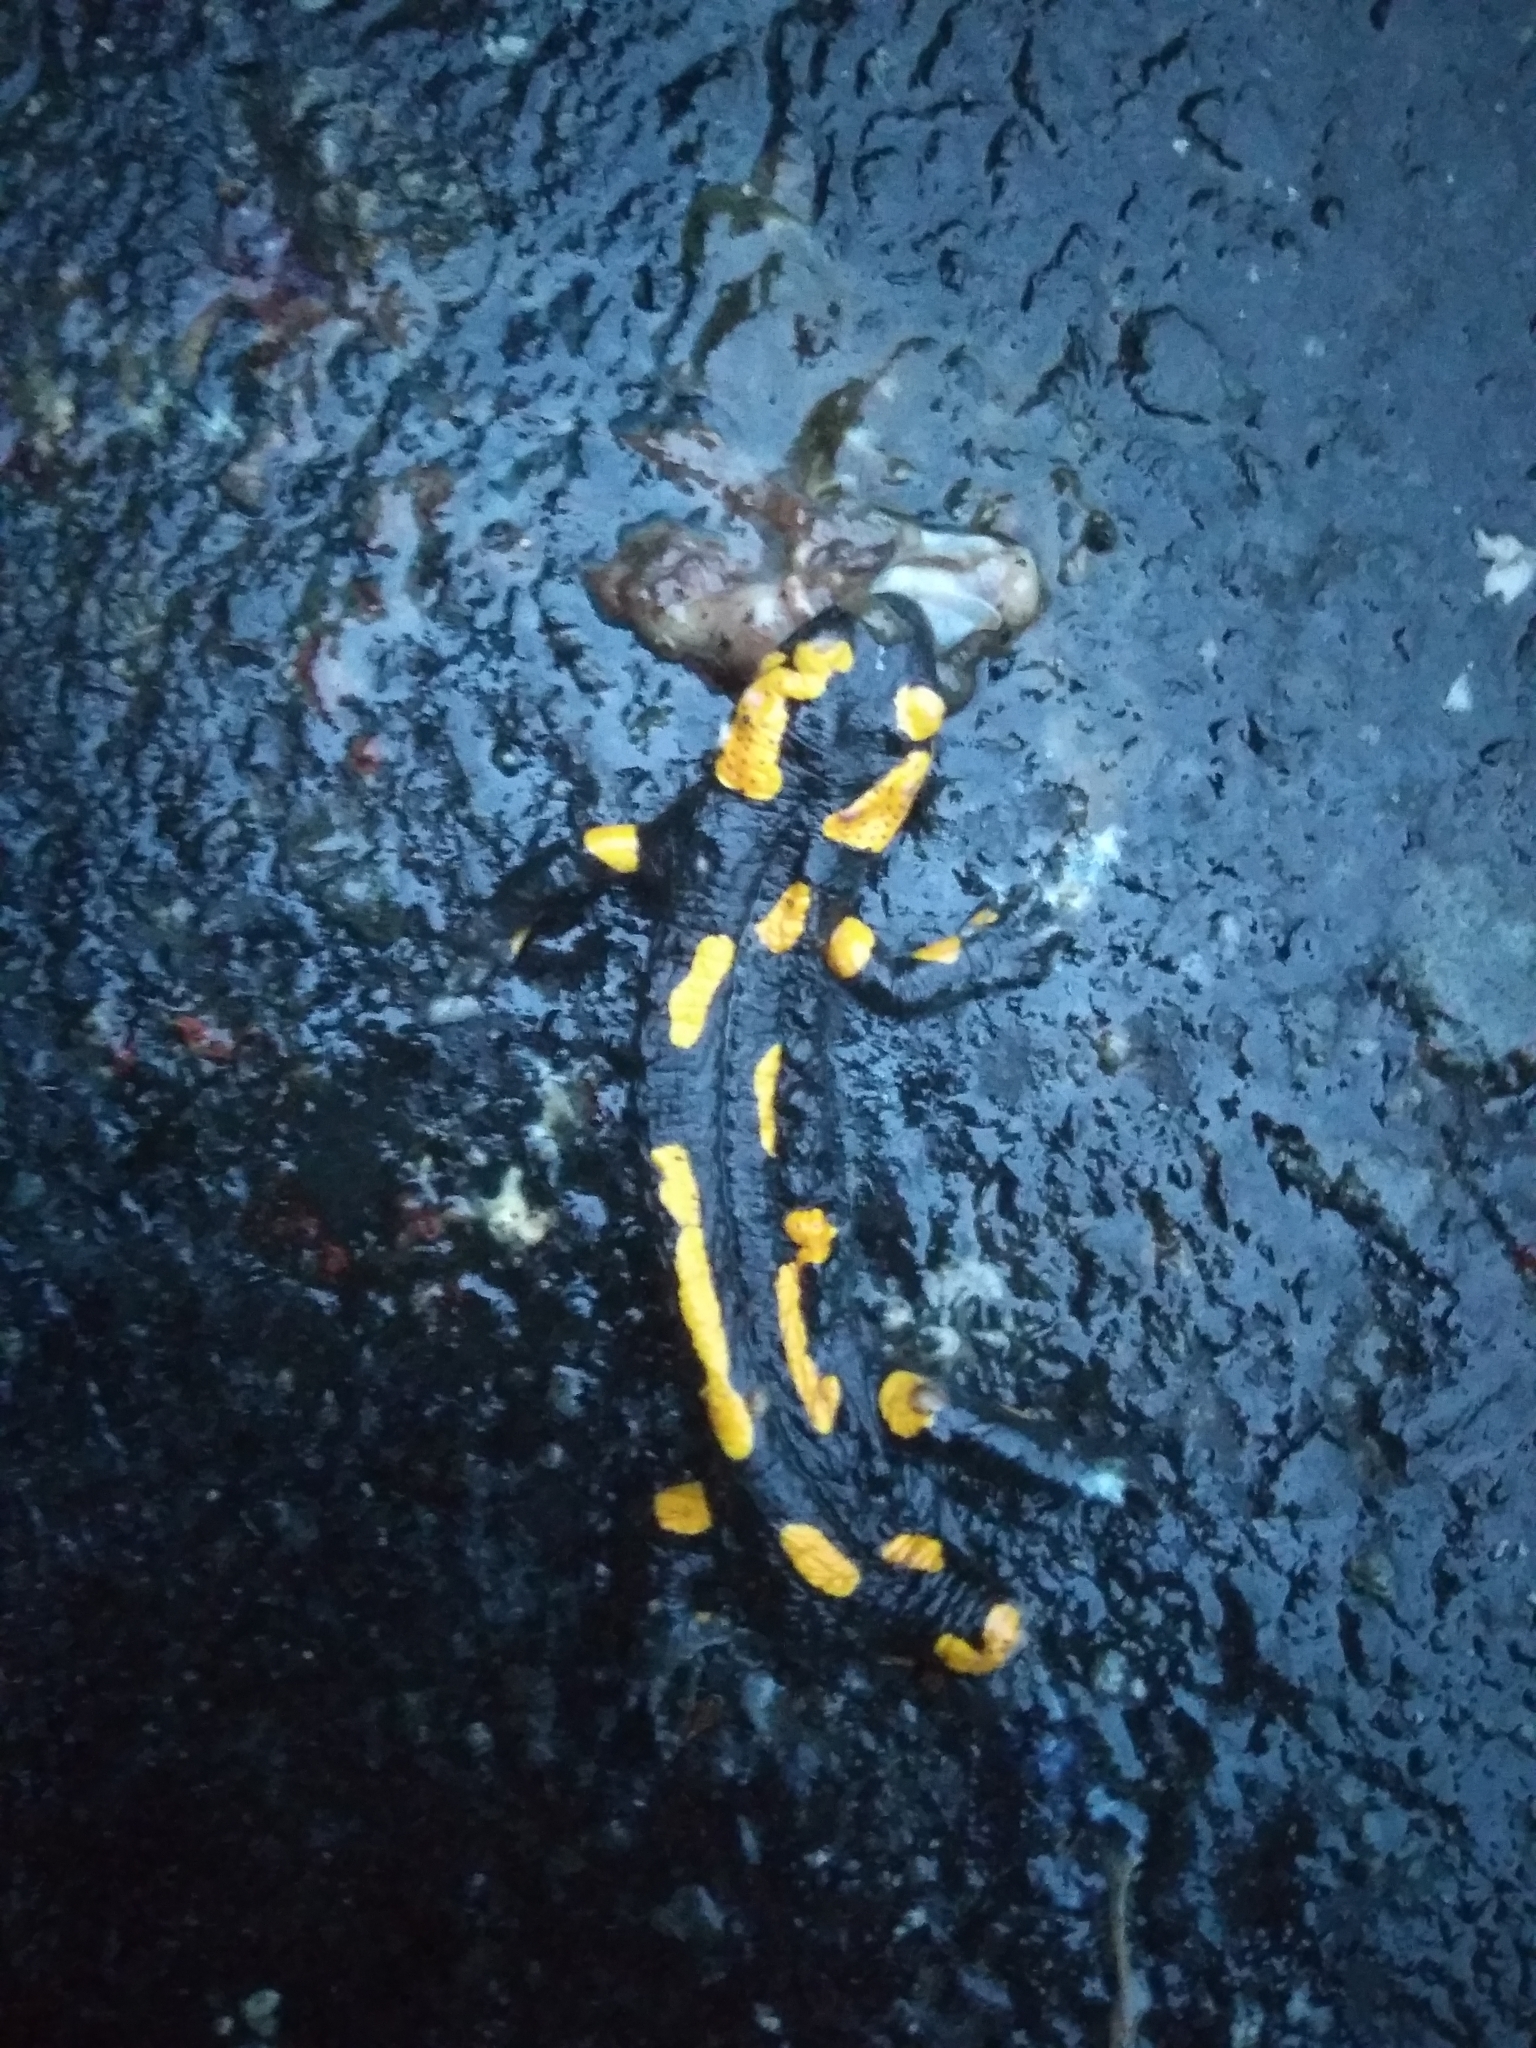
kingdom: Animalia
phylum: Chordata
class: Amphibia
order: Caudata
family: Salamandridae
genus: Salamandra
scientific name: Salamandra salamandra
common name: Fire salamander
